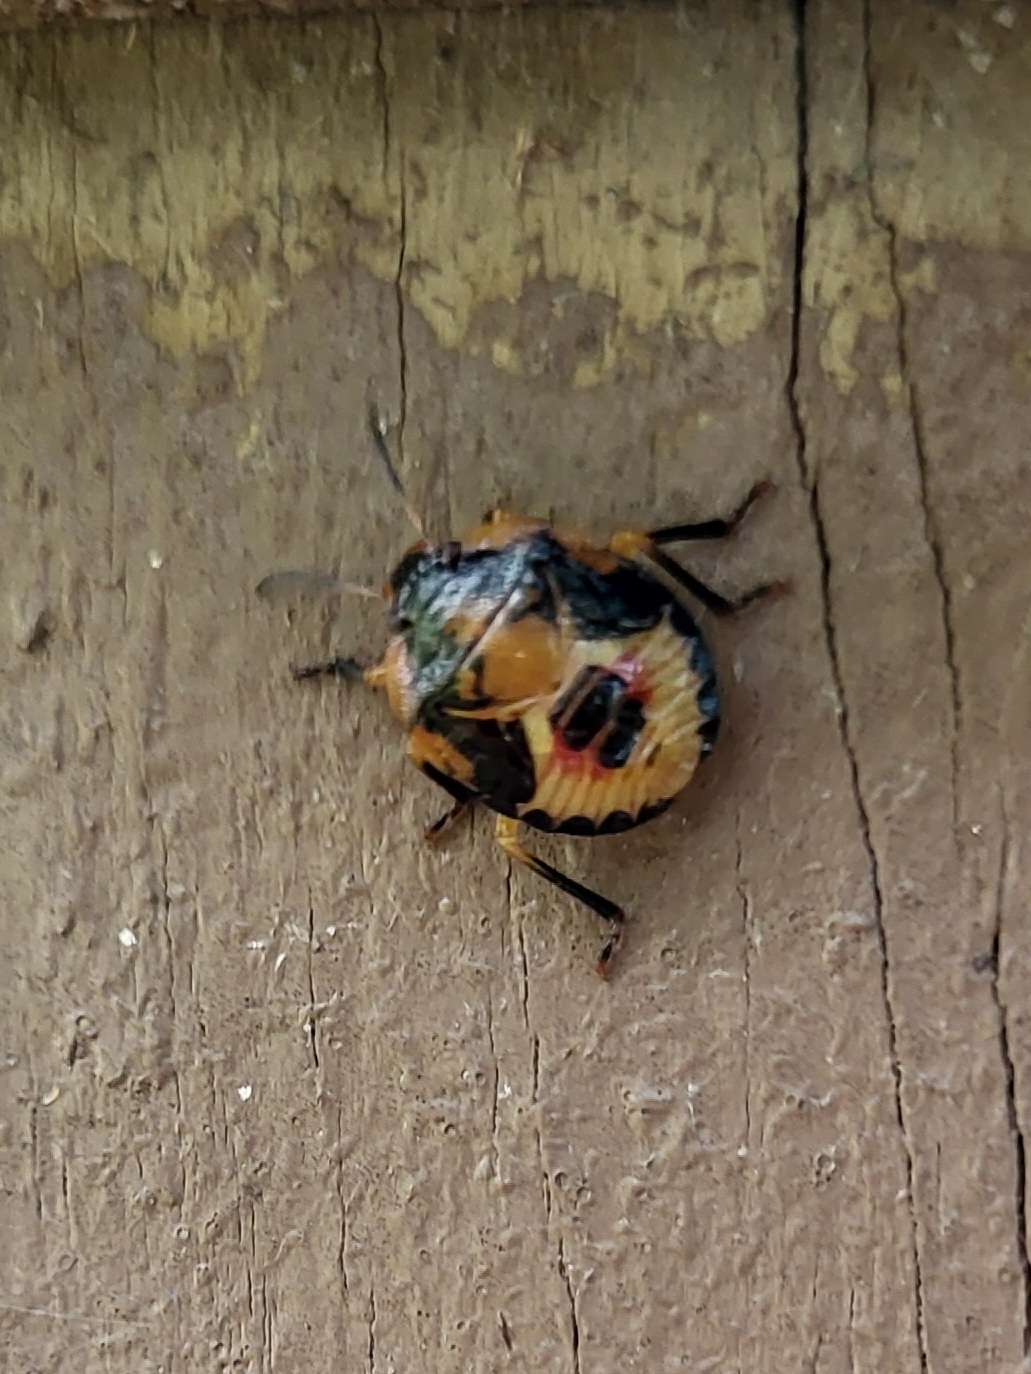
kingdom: Animalia
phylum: Arthropoda
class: Insecta
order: Hemiptera
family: Pentatomidae
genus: Chinavia
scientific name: Chinavia hilaris
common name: Green stink bug
